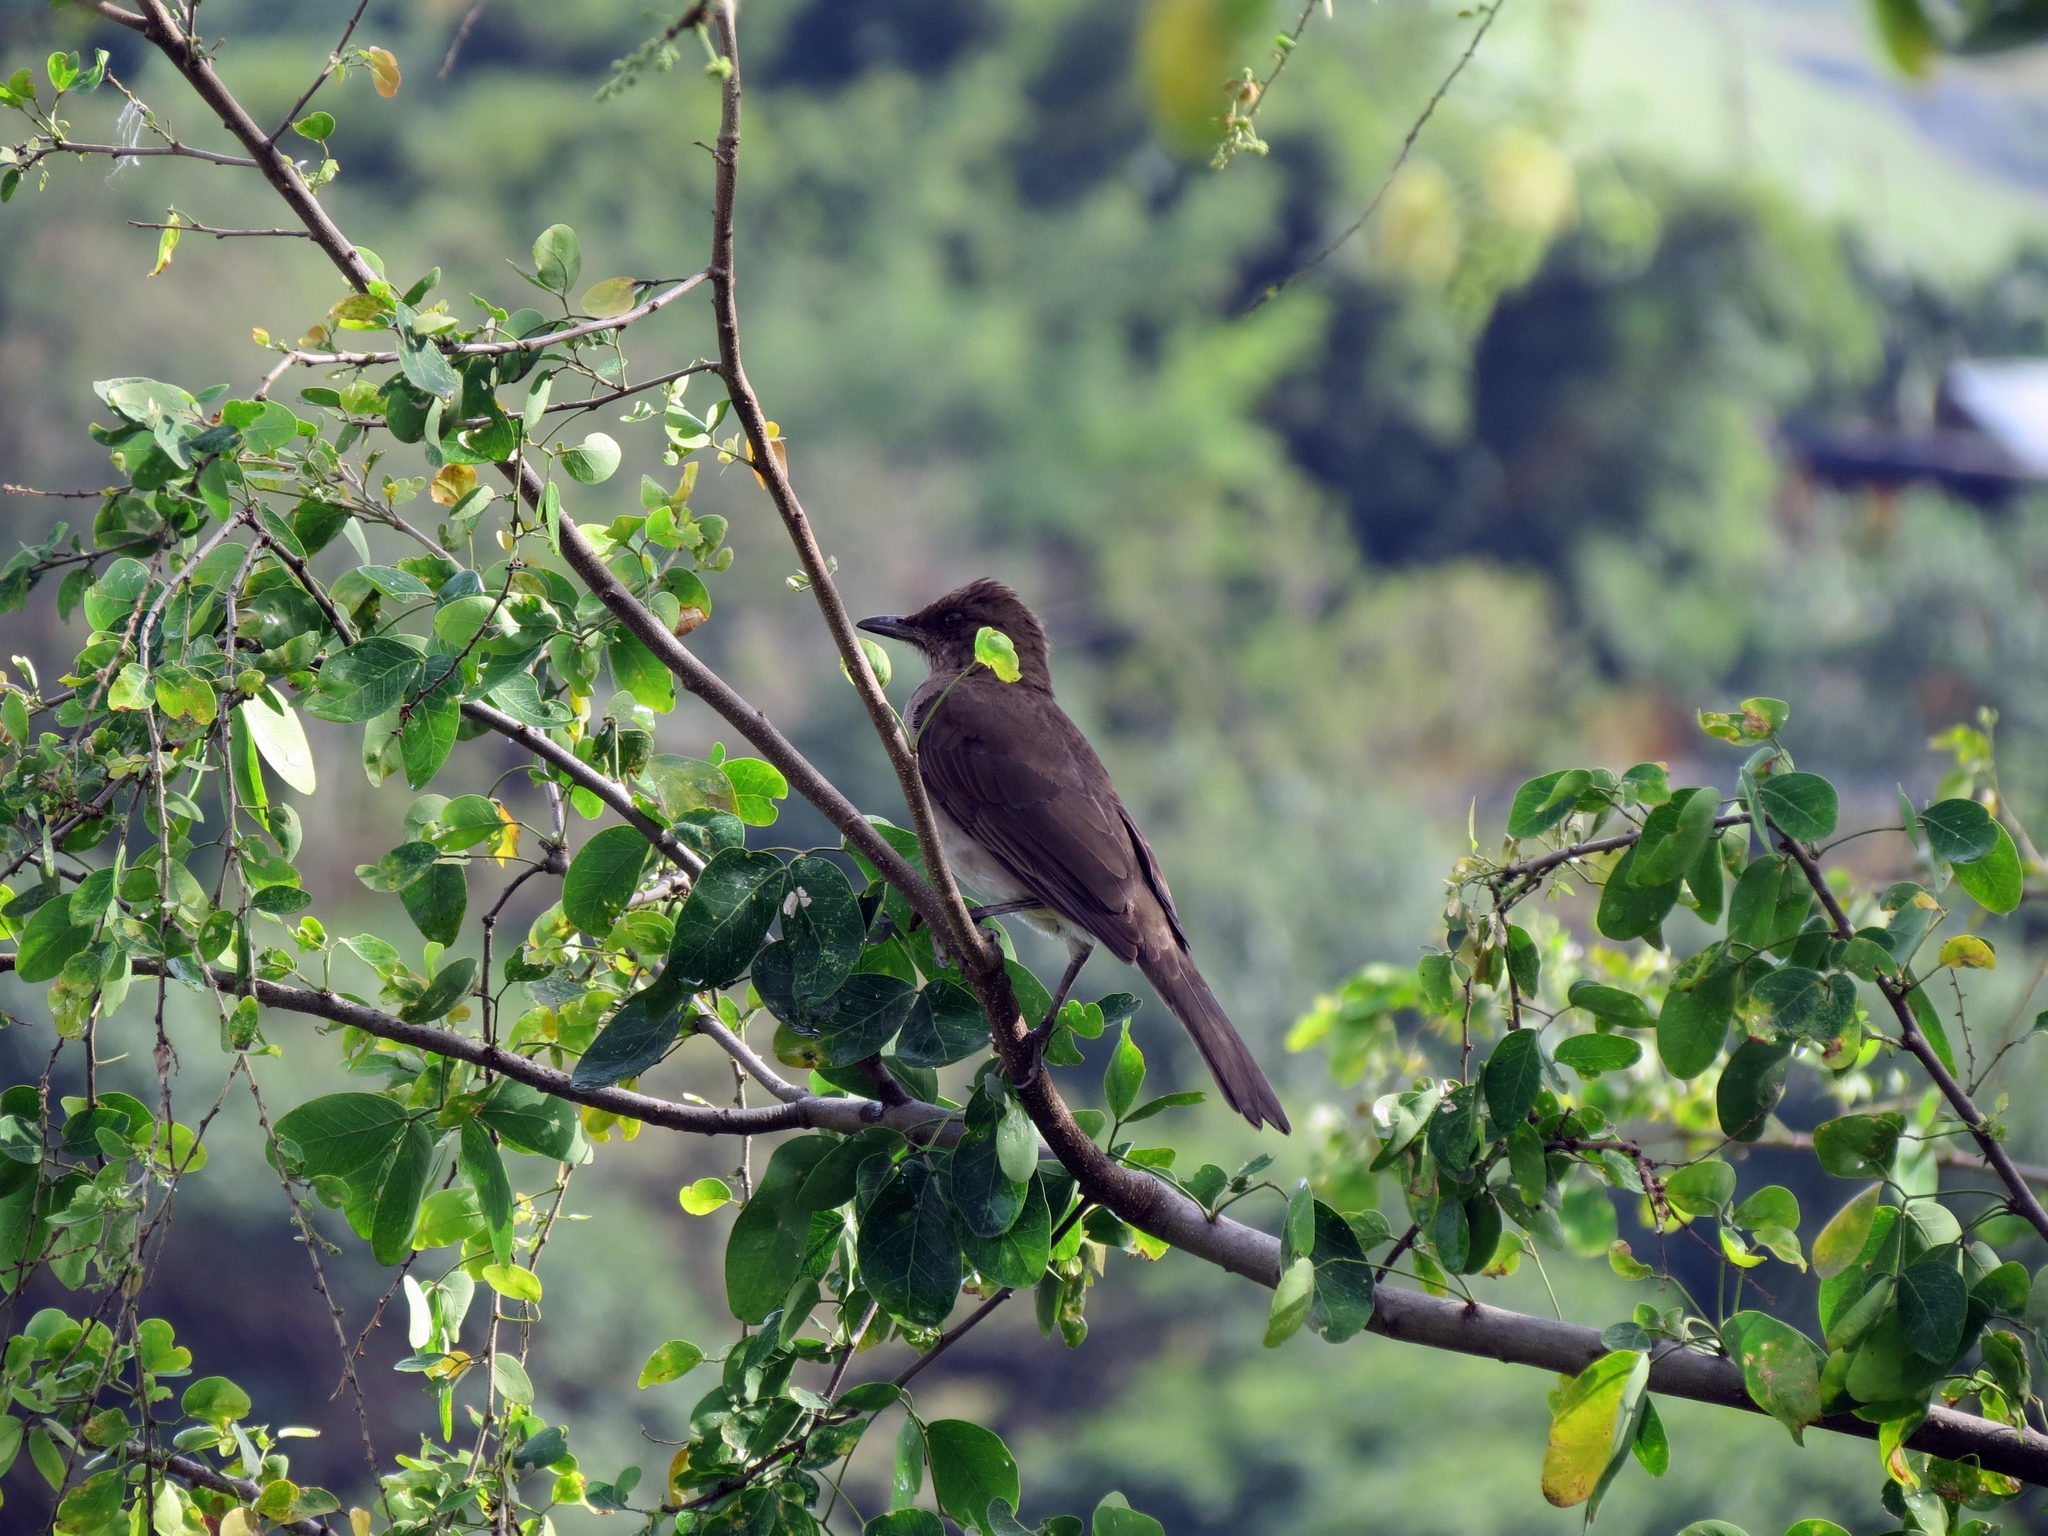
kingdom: Animalia
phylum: Chordata
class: Aves
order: Passeriformes
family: Turdidae
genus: Turdus
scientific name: Turdus ignobilis
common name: Black-billed thrush
